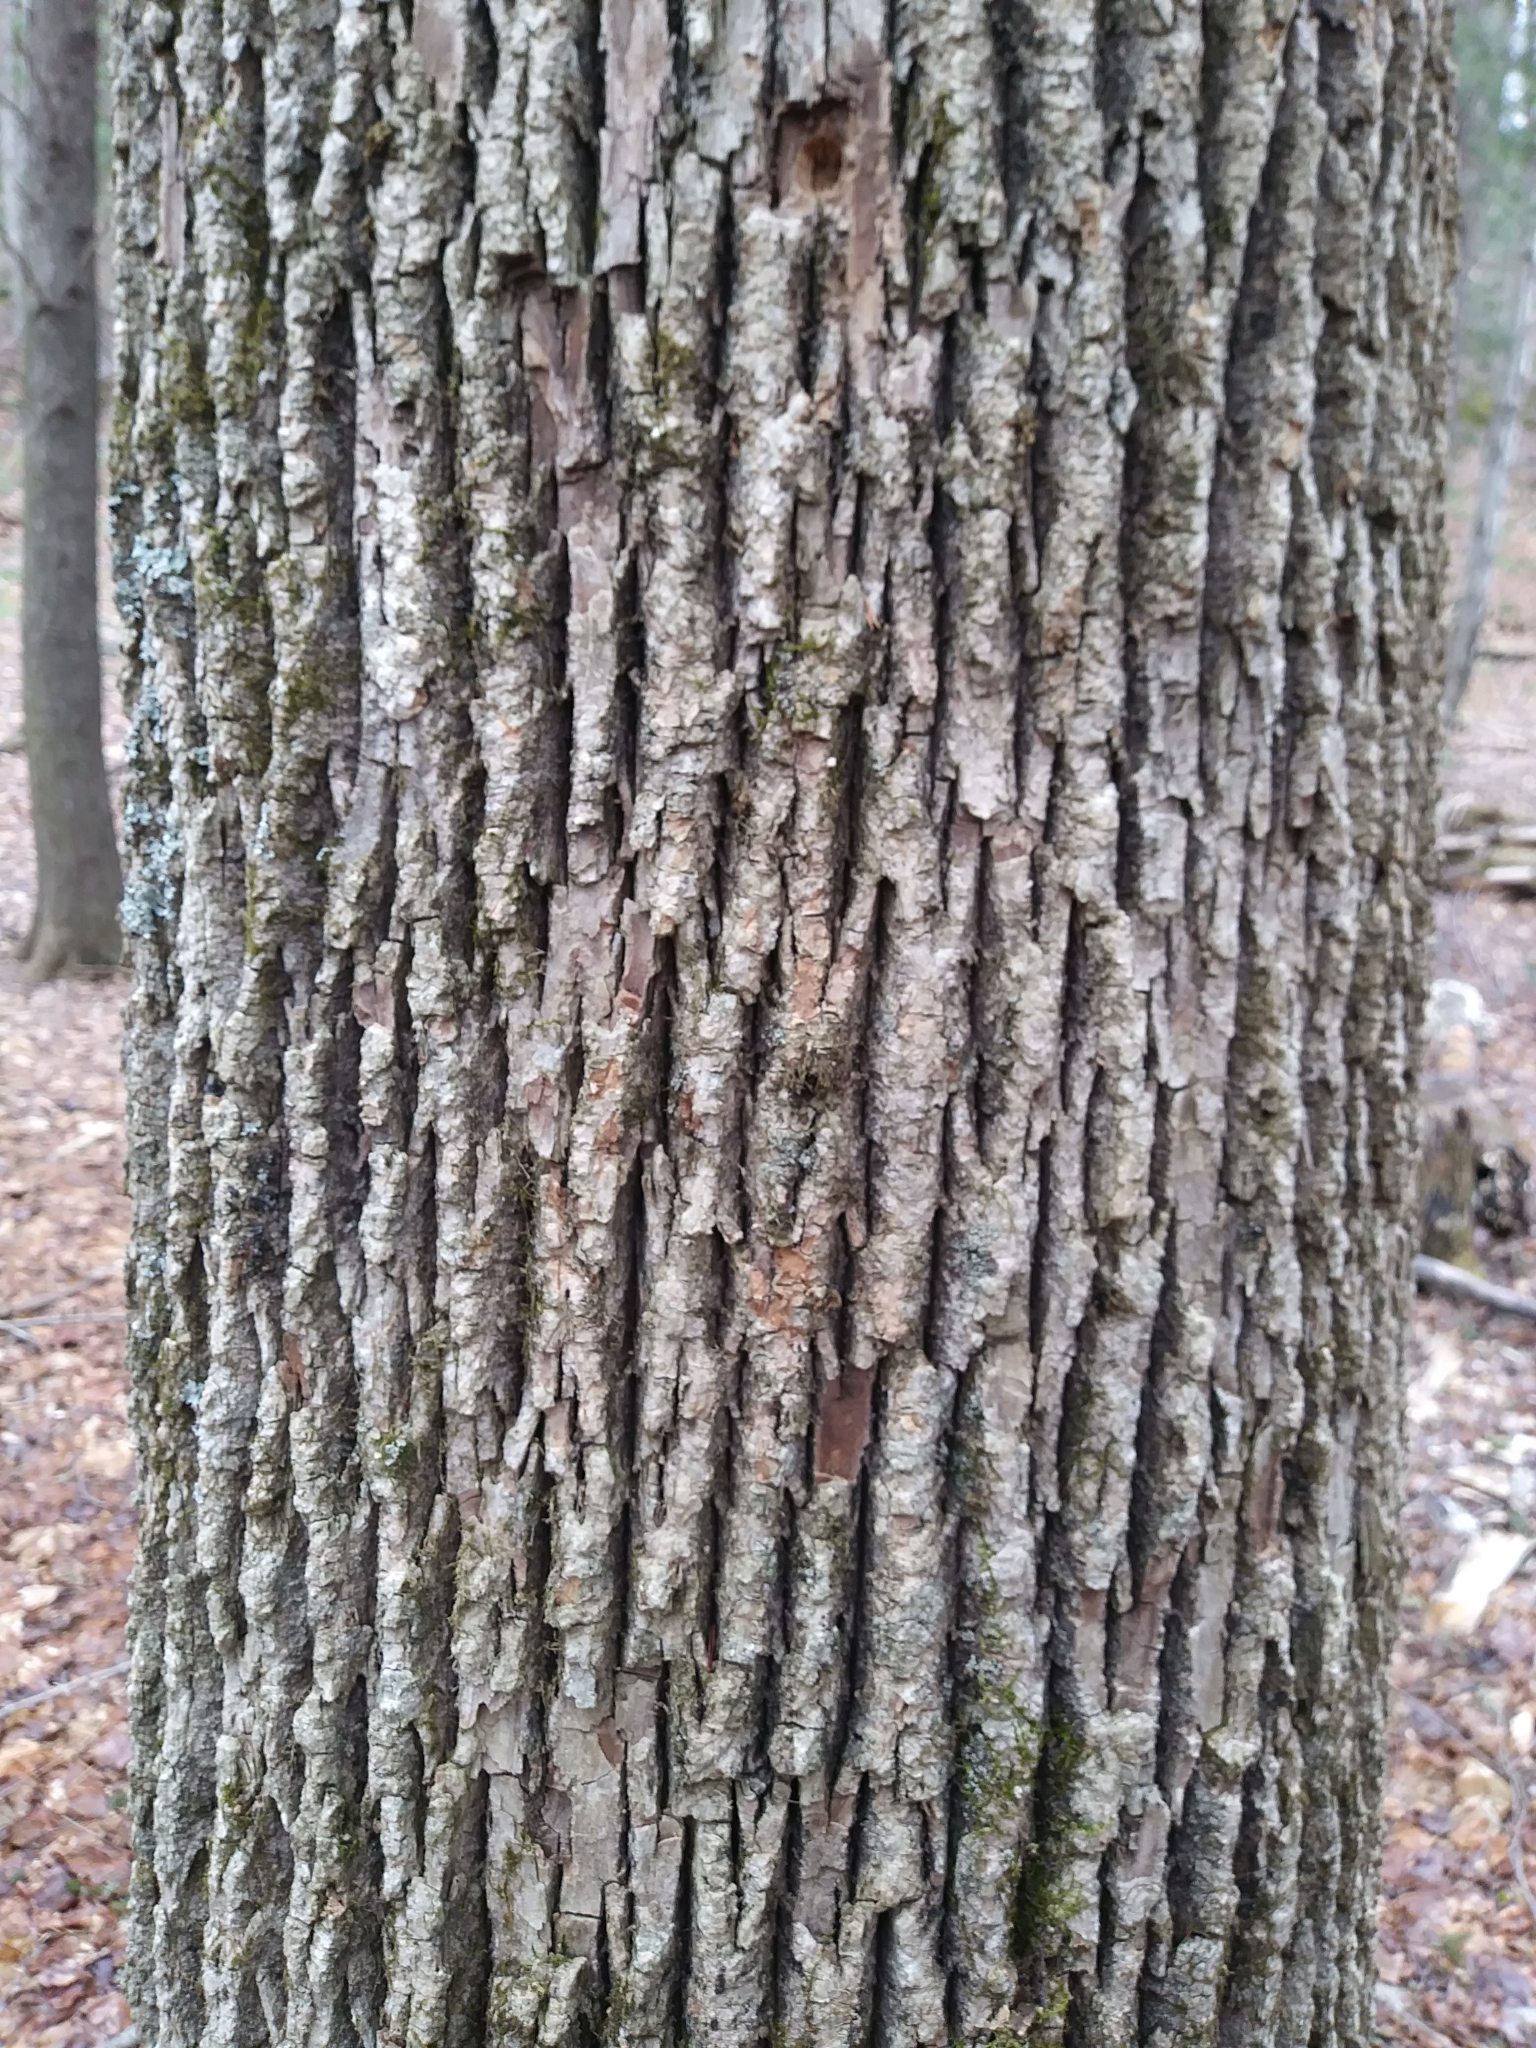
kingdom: Plantae
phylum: Tracheophyta
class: Magnoliopsida
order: Lamiales
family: Oleaceae
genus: Fraxinus
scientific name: Fraxinus americana
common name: White ash
